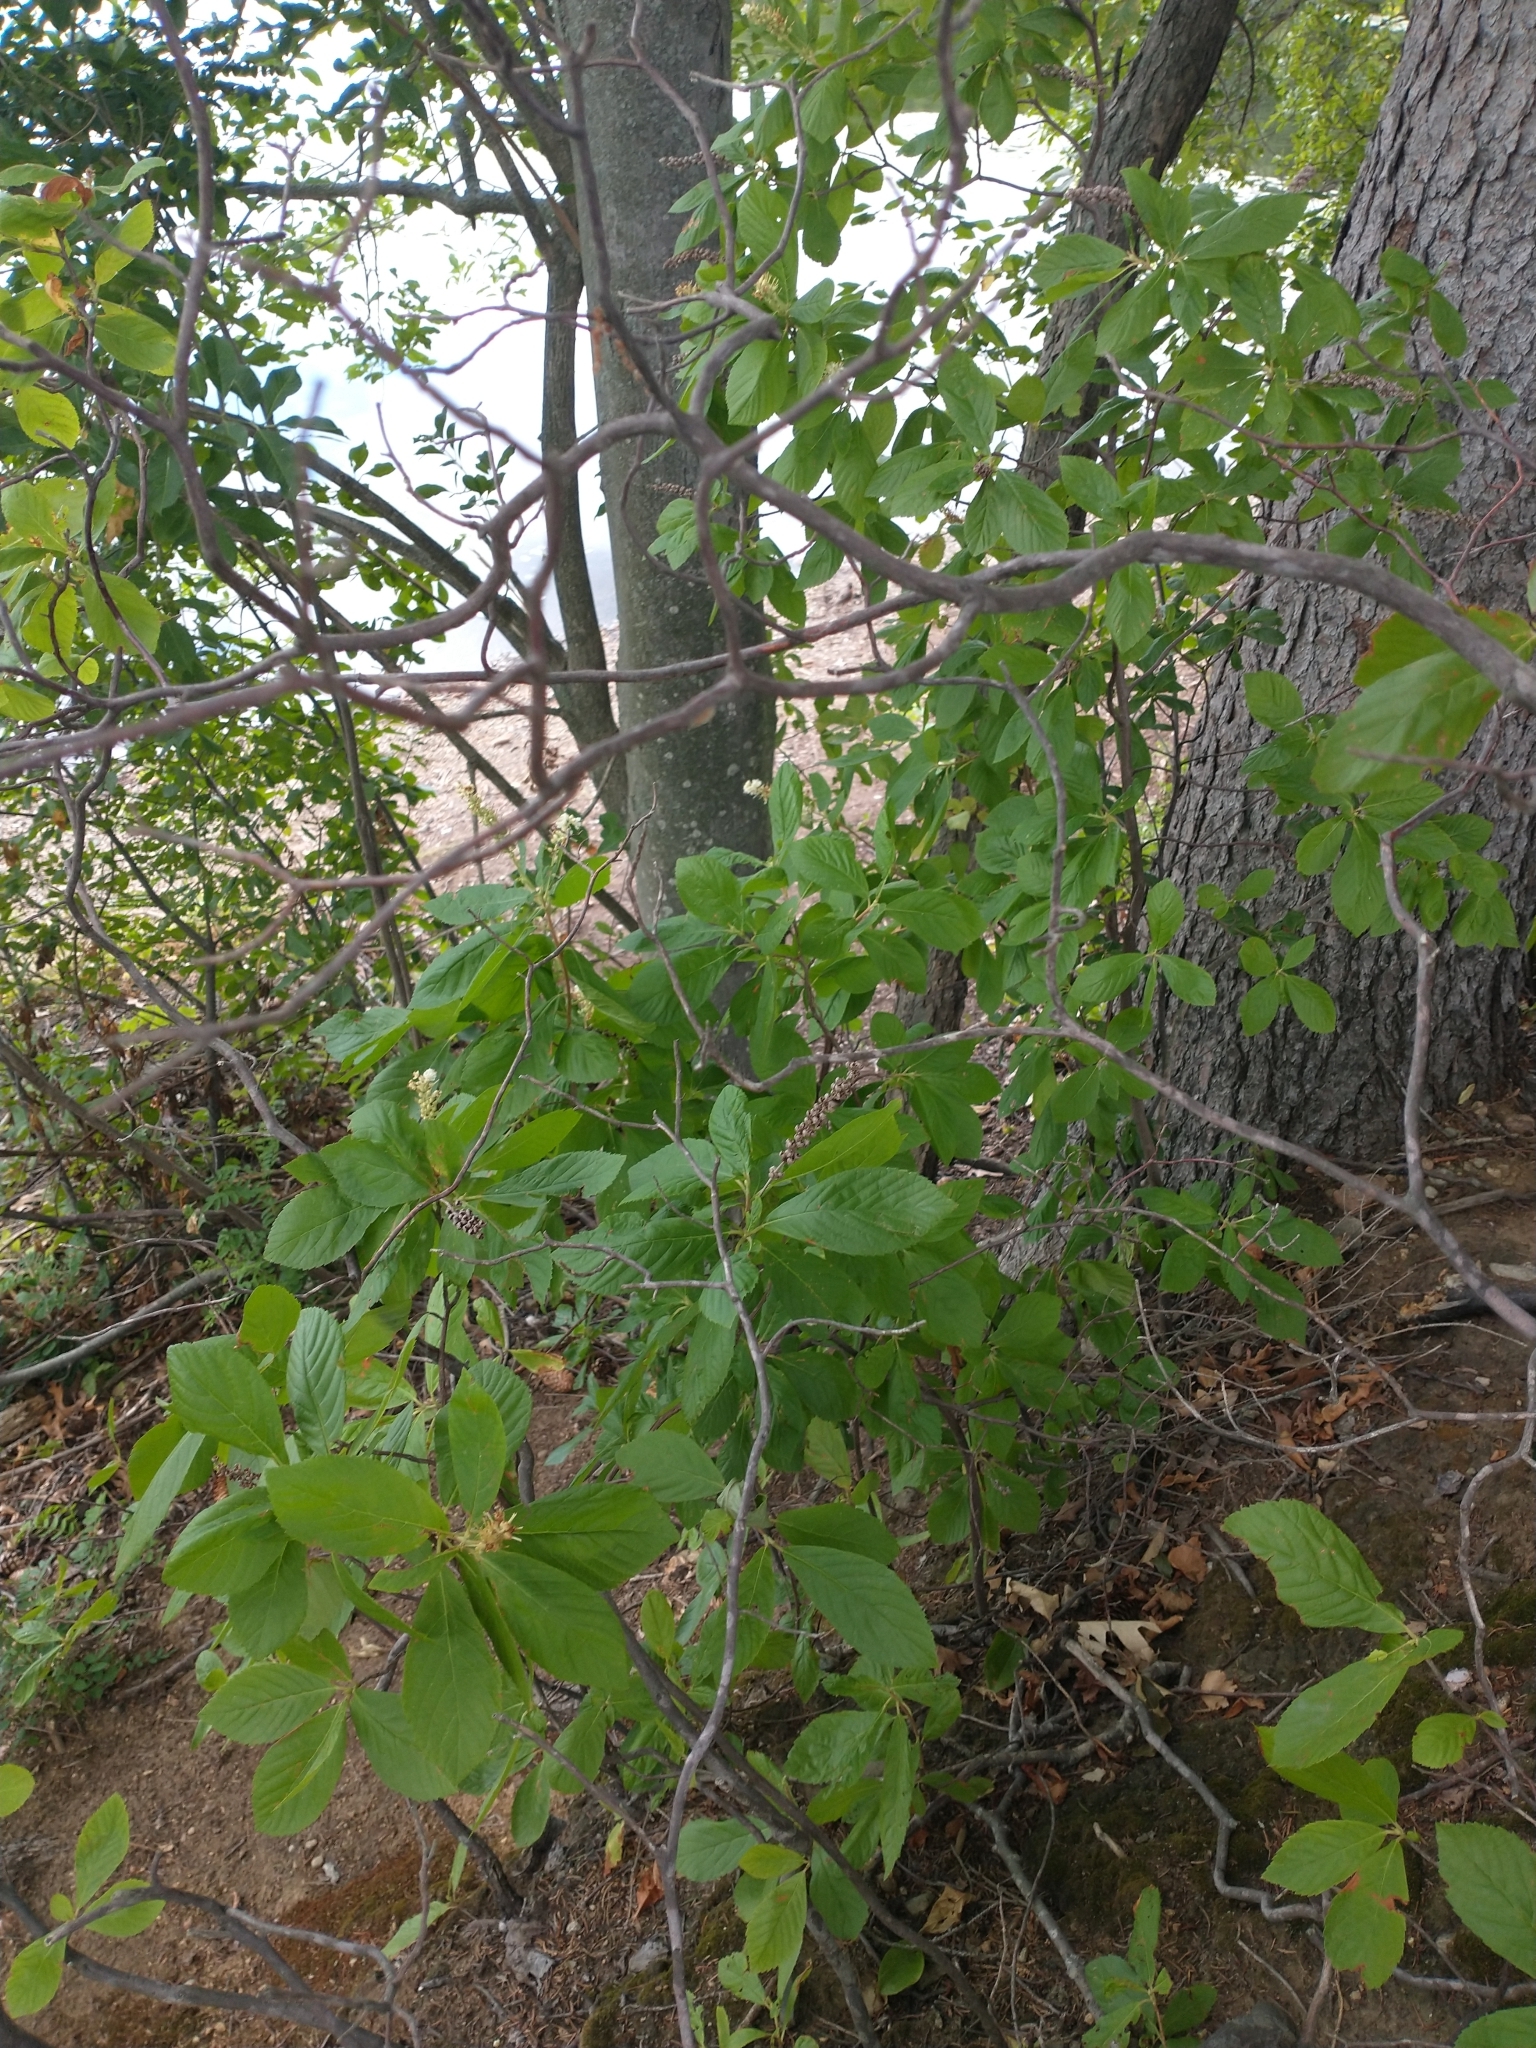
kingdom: Plantae
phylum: Tracheophyta
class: Magnoliopsida
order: Ericales
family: Clethraceae
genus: Clethra
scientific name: Clethra alnifolia
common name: Sweet pepperbush
